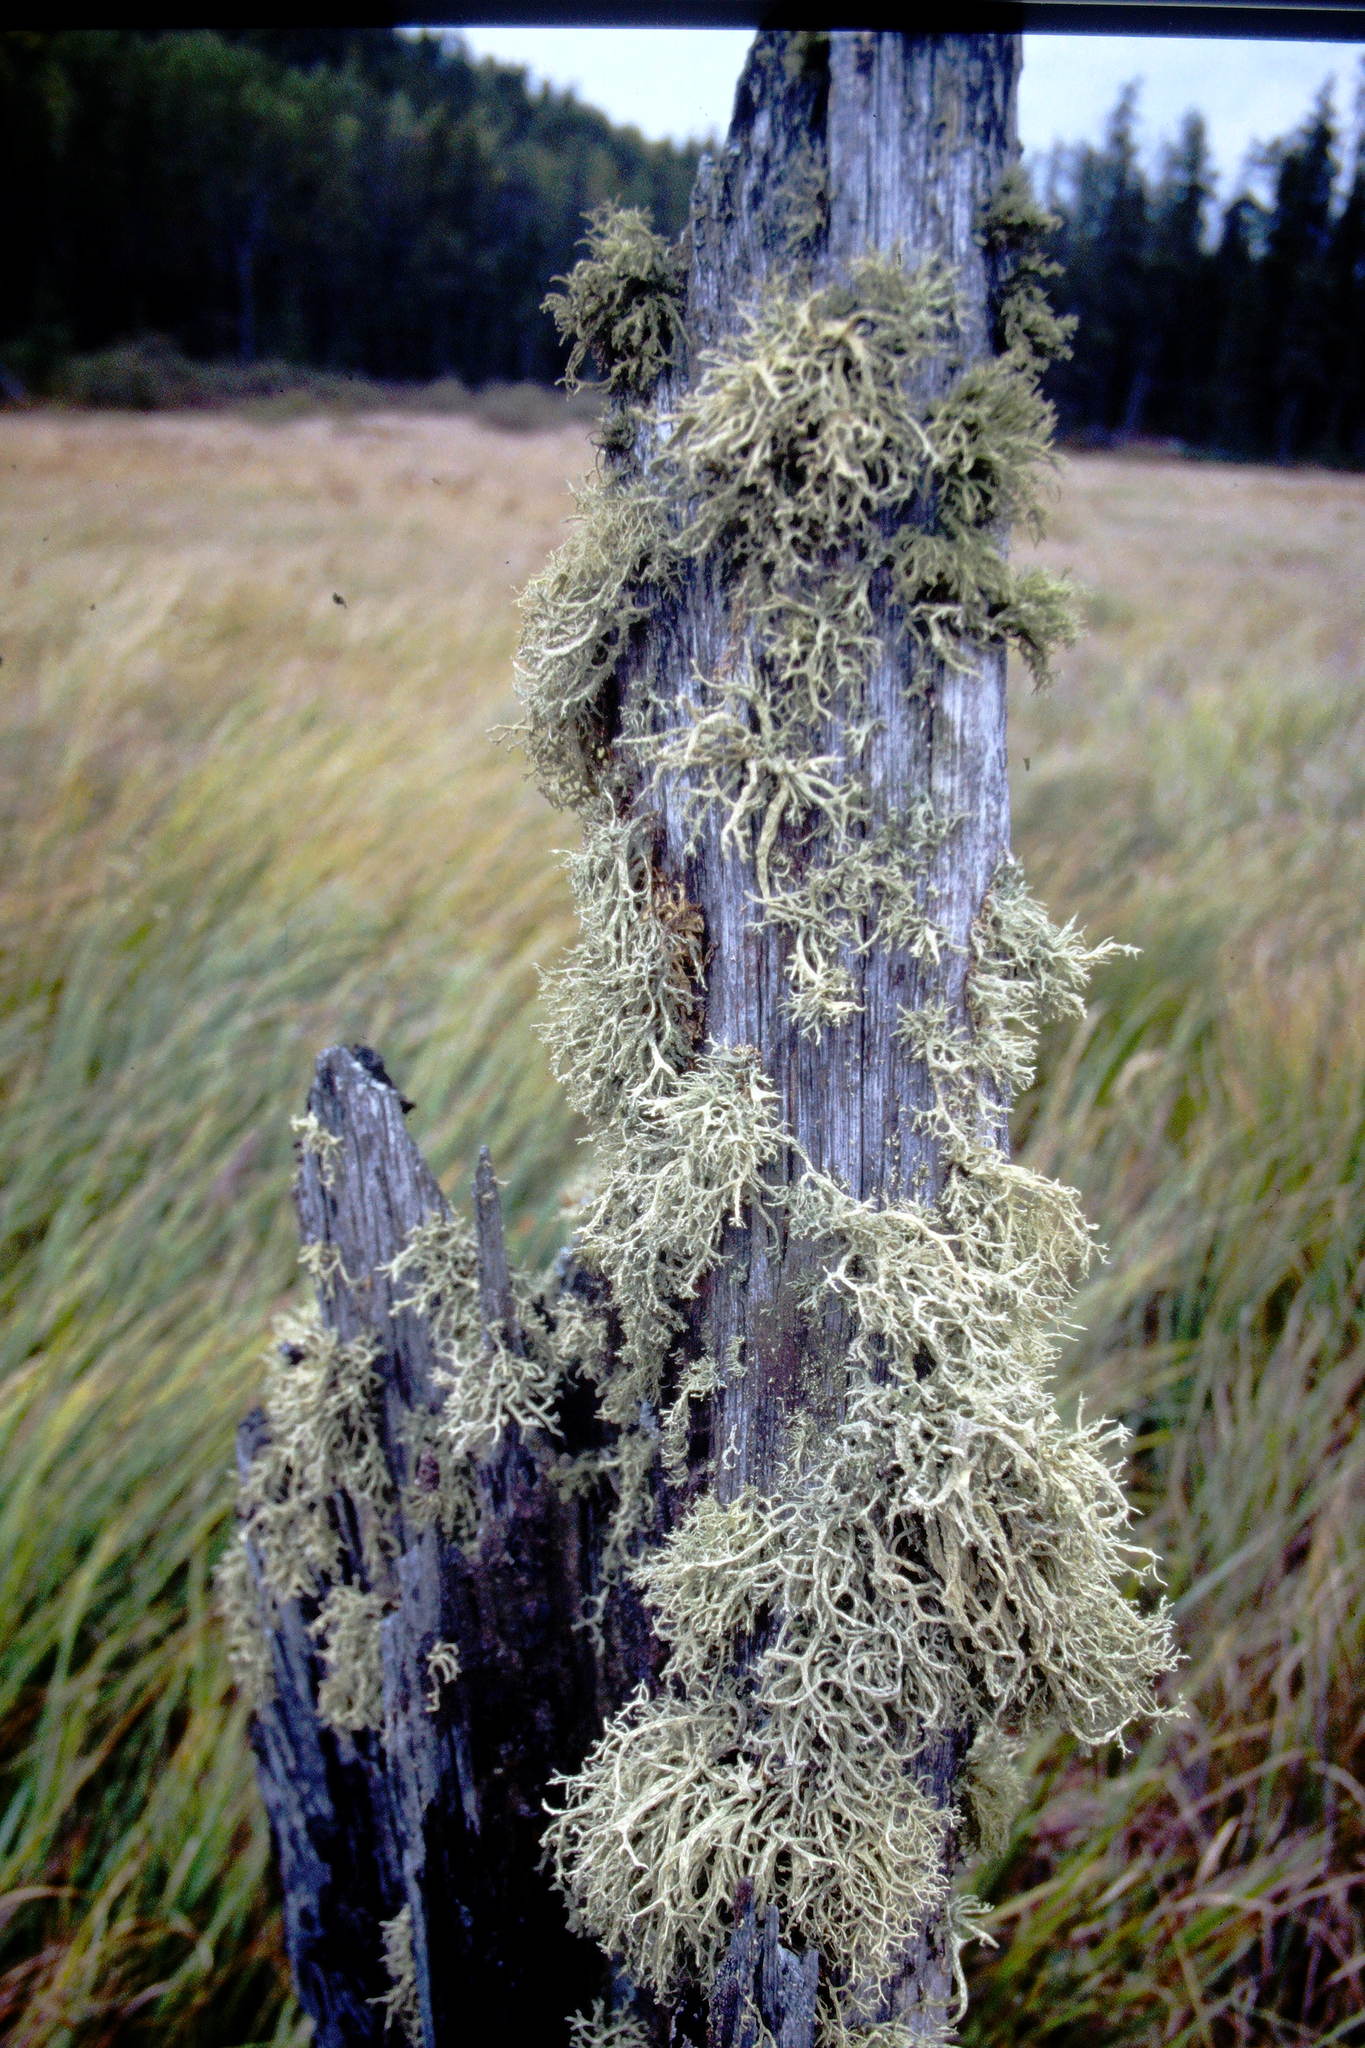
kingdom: Fungi
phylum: Ascomycota
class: Lecanoromycetes
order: Lecanorales
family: Parmeliaceae
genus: Evernia
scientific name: Evernia mesomorpha
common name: Boreal oak moss lichen
